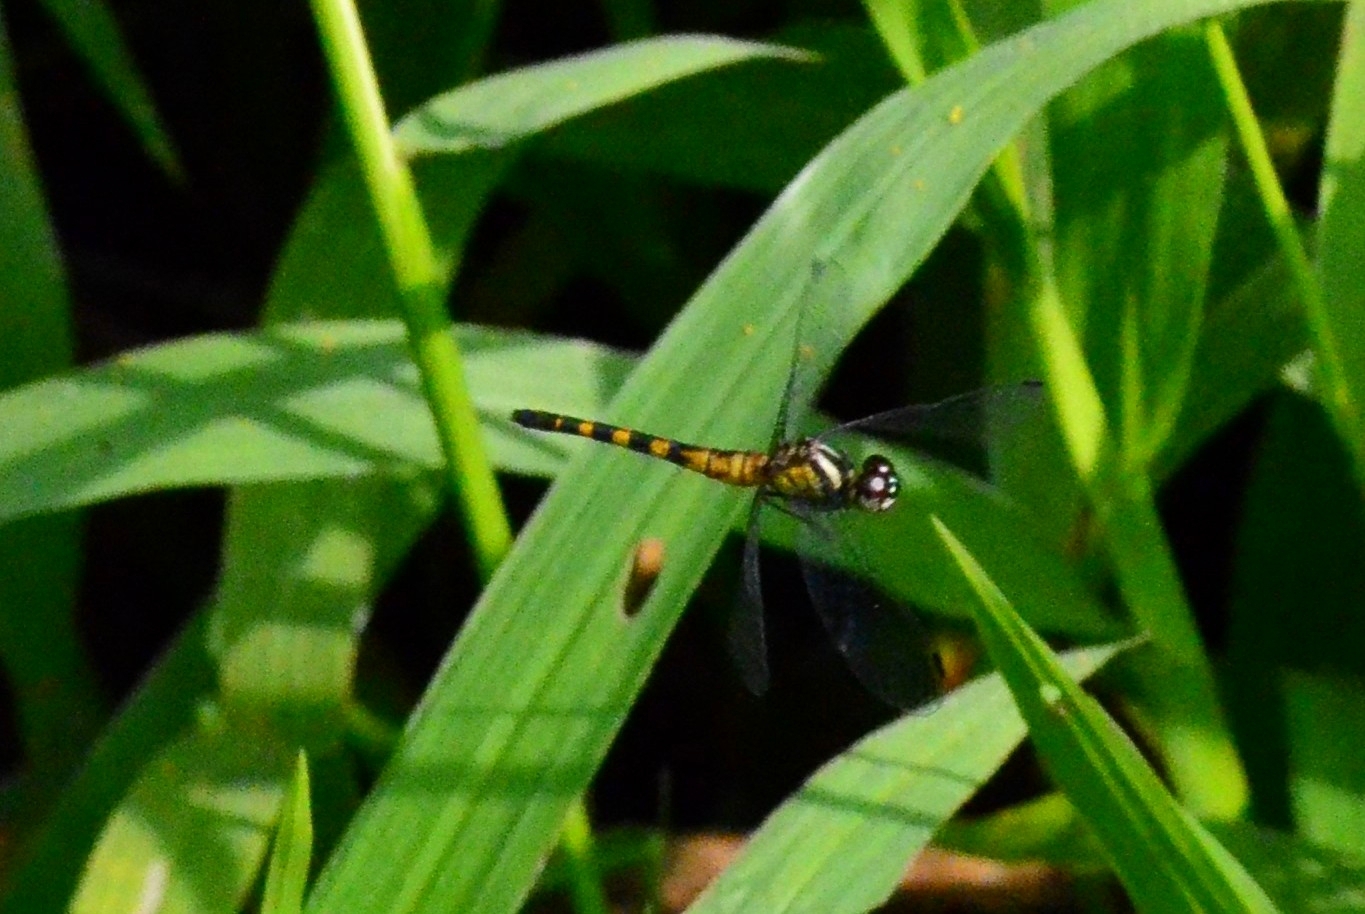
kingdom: Animalia
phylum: Arthropoda
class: Insecta
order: Odonata
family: Libellulidae
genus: Epithemis
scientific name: Epithemis mariae
